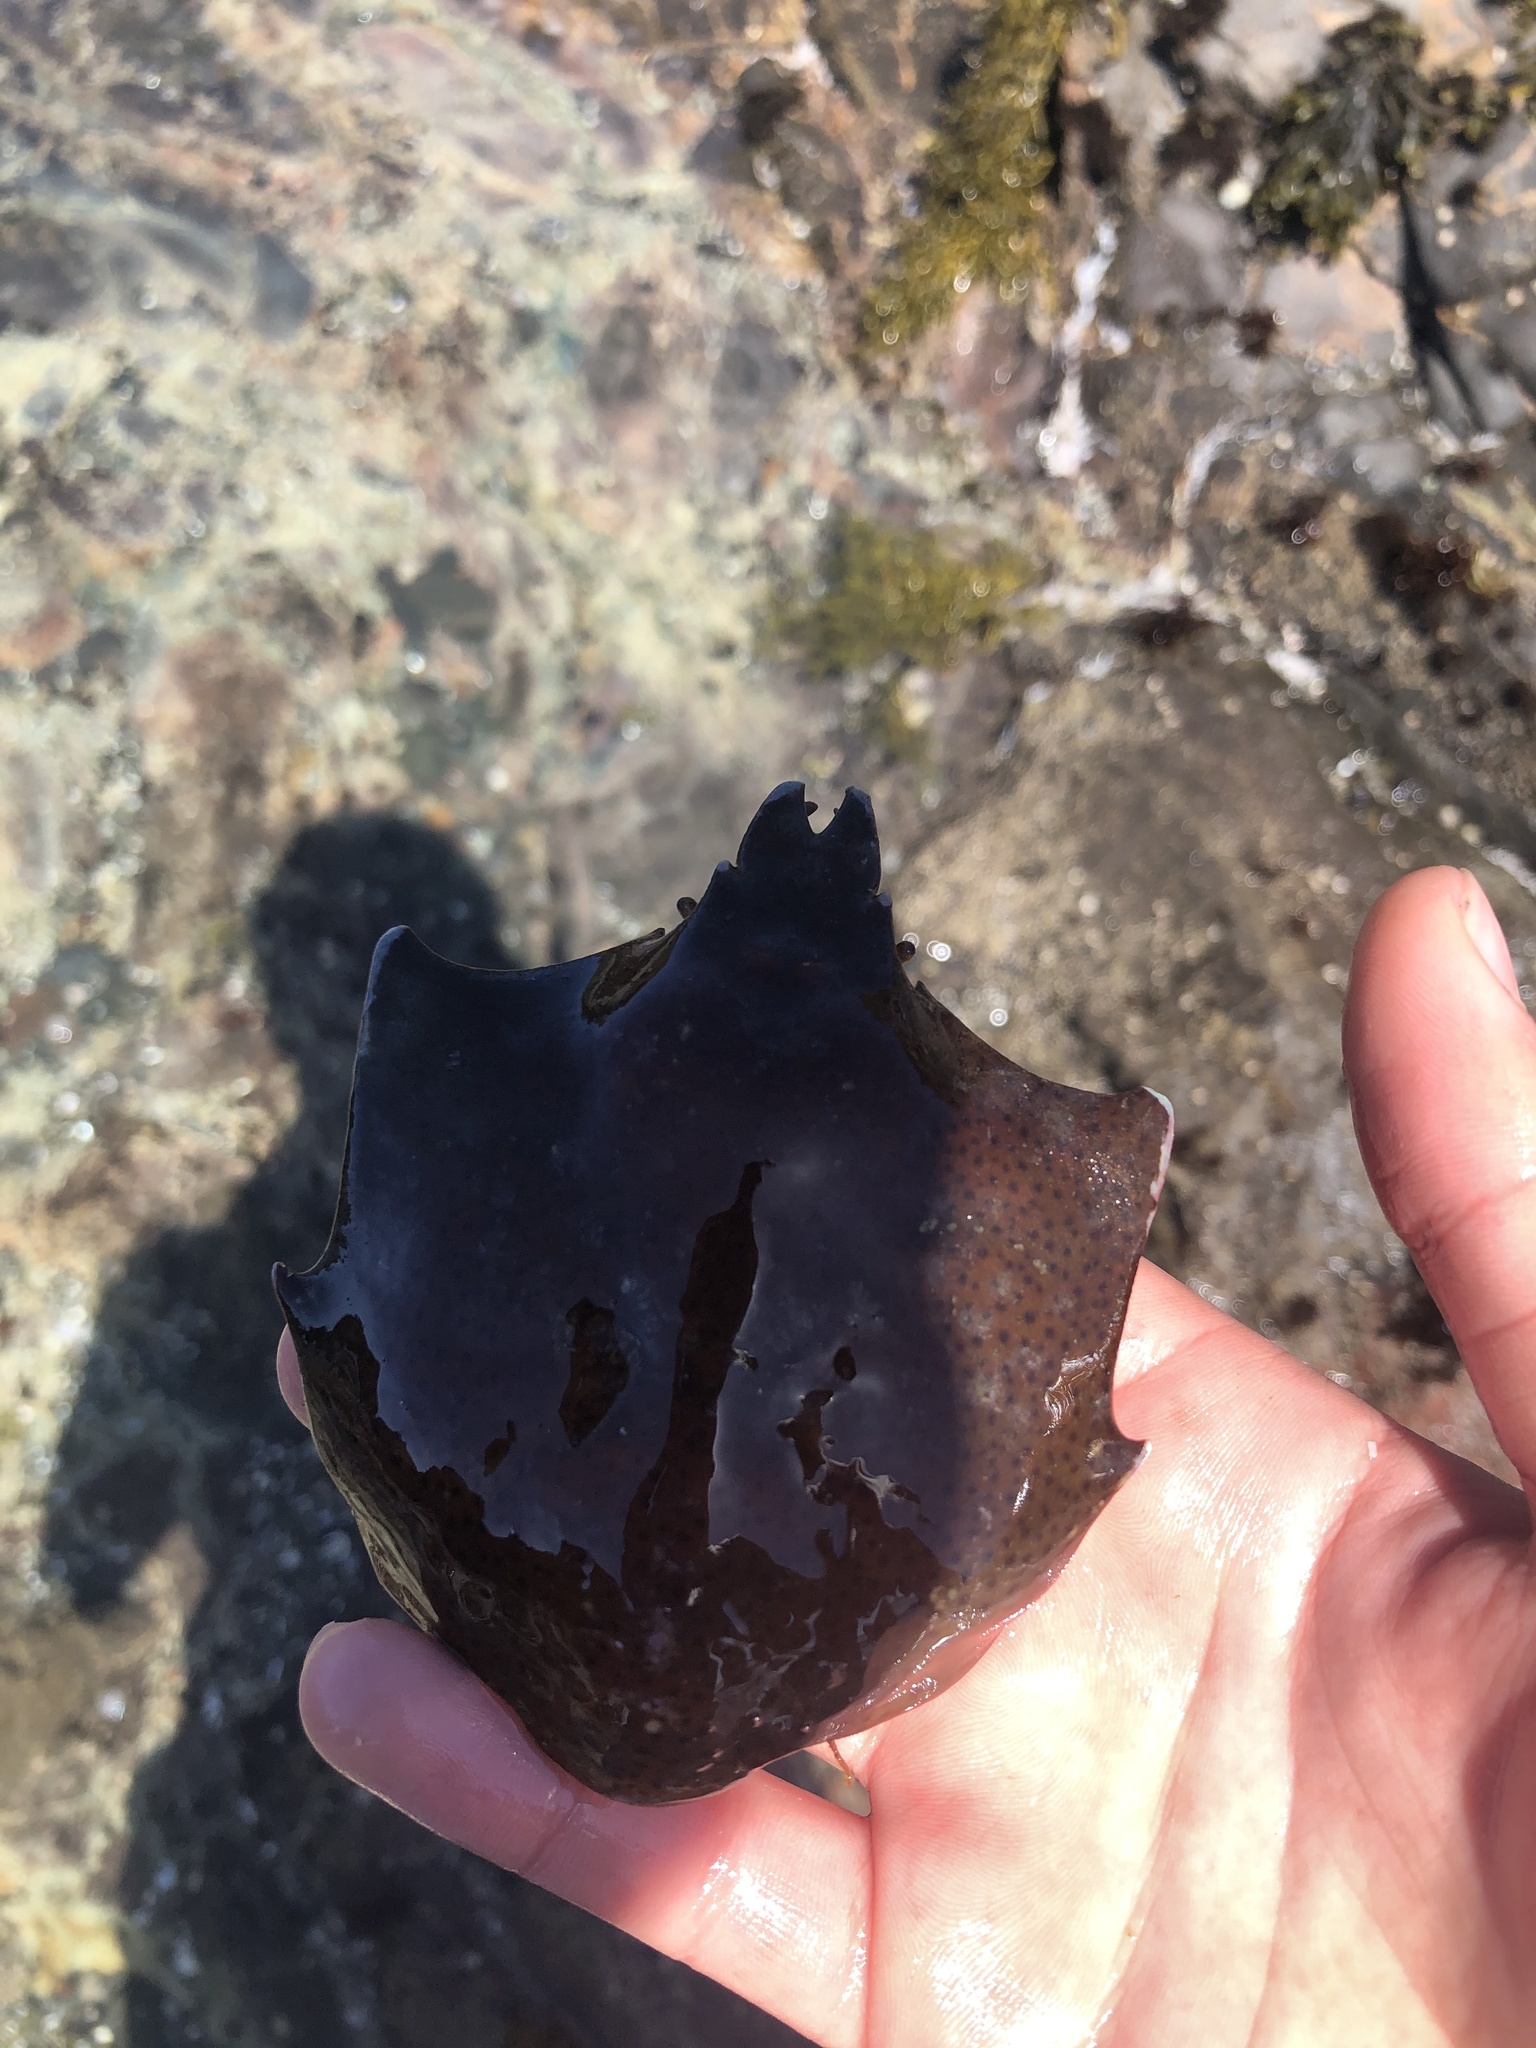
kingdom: Animalia
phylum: Arthropoda
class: Malacostraca
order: Decapoda
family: Epialtidae
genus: Pugettia
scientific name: Pugettia producta
